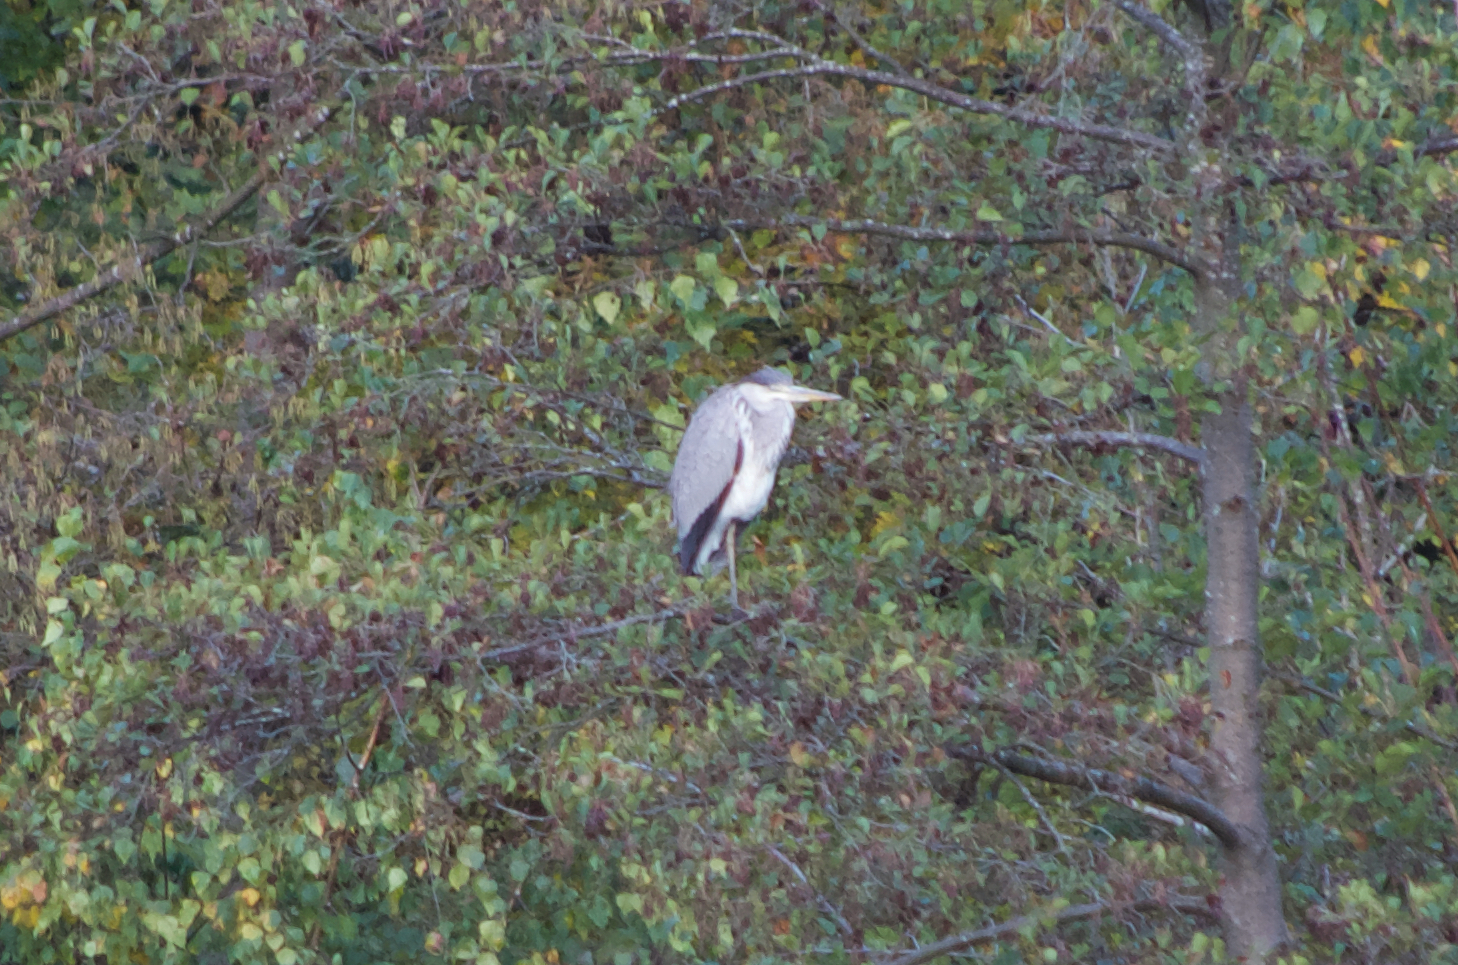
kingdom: Animalia
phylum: Chordata
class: Aves
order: Pelecaniformes
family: Ardeidae
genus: Ardea
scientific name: Ardea cinerea
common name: Grey heron
